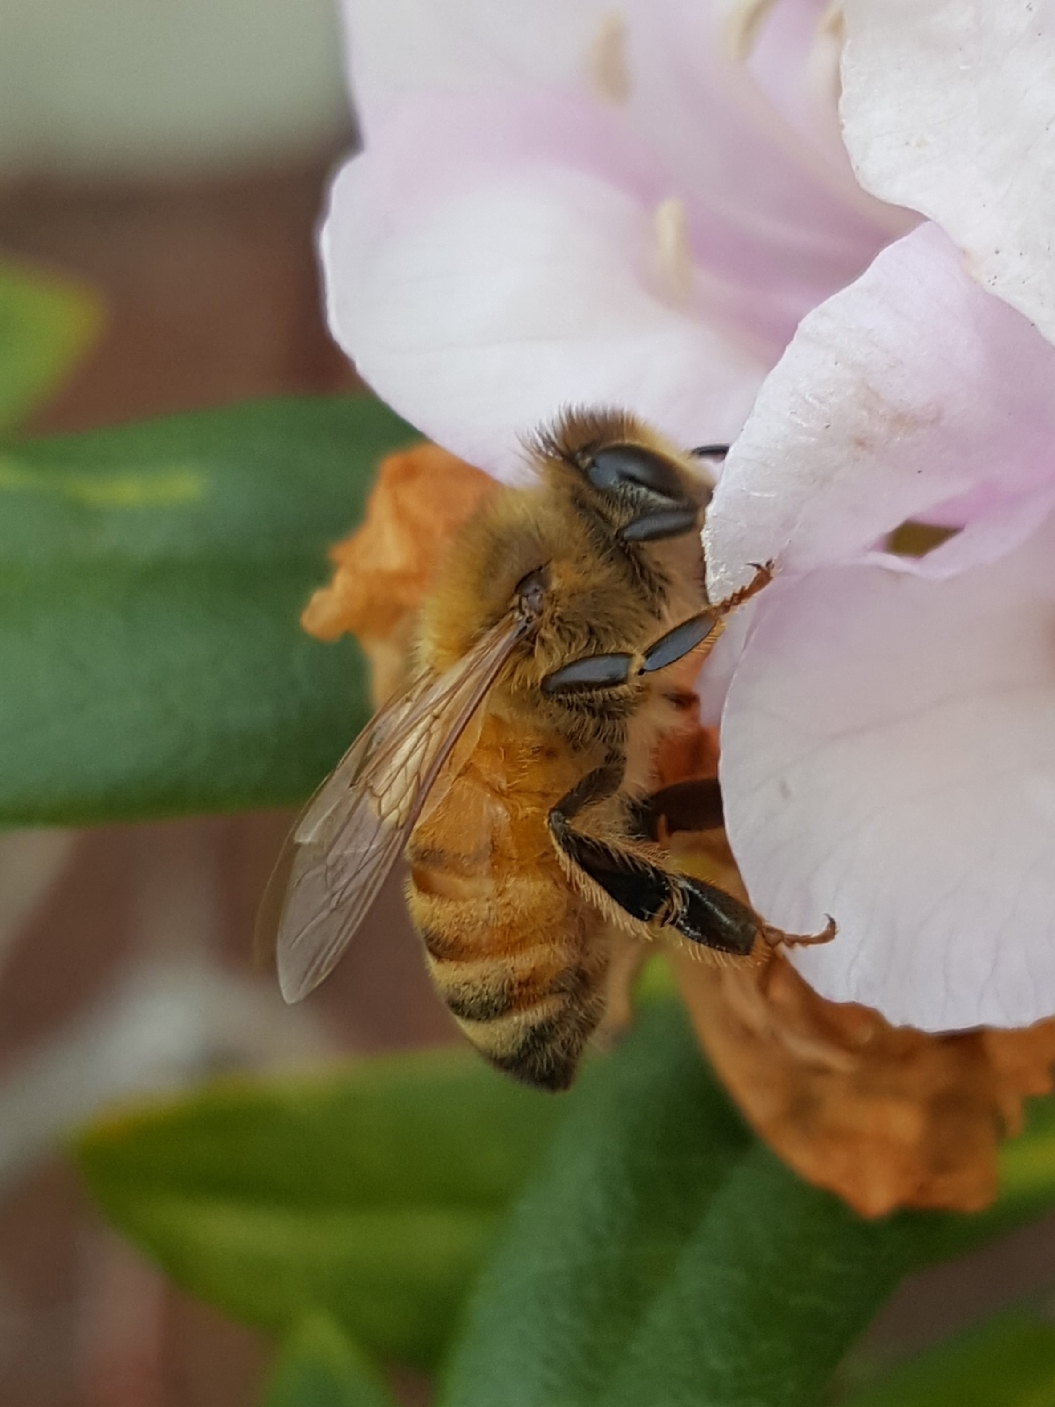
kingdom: Animalia
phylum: Arthropoda
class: Insecta
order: Hymenoptera
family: Apidae
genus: Apis
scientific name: Apis mellifera
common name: Honey bee
